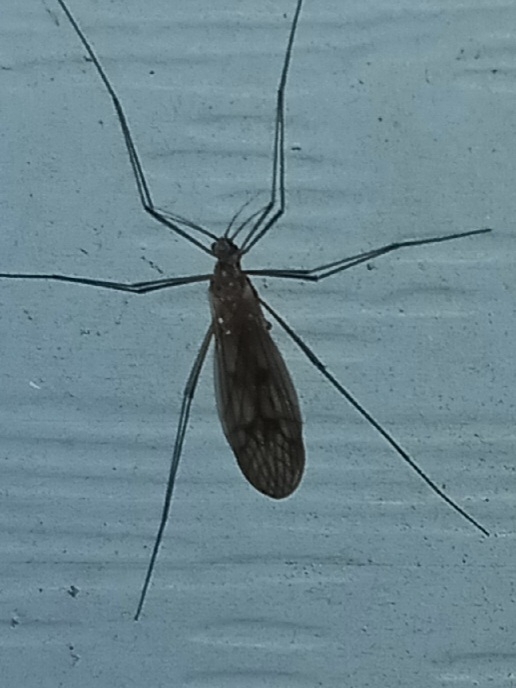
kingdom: Animalia
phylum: Arthropoda
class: Insecta
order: Diptera
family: Trichoceridae
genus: Trichocera
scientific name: Trichocera bimacula
